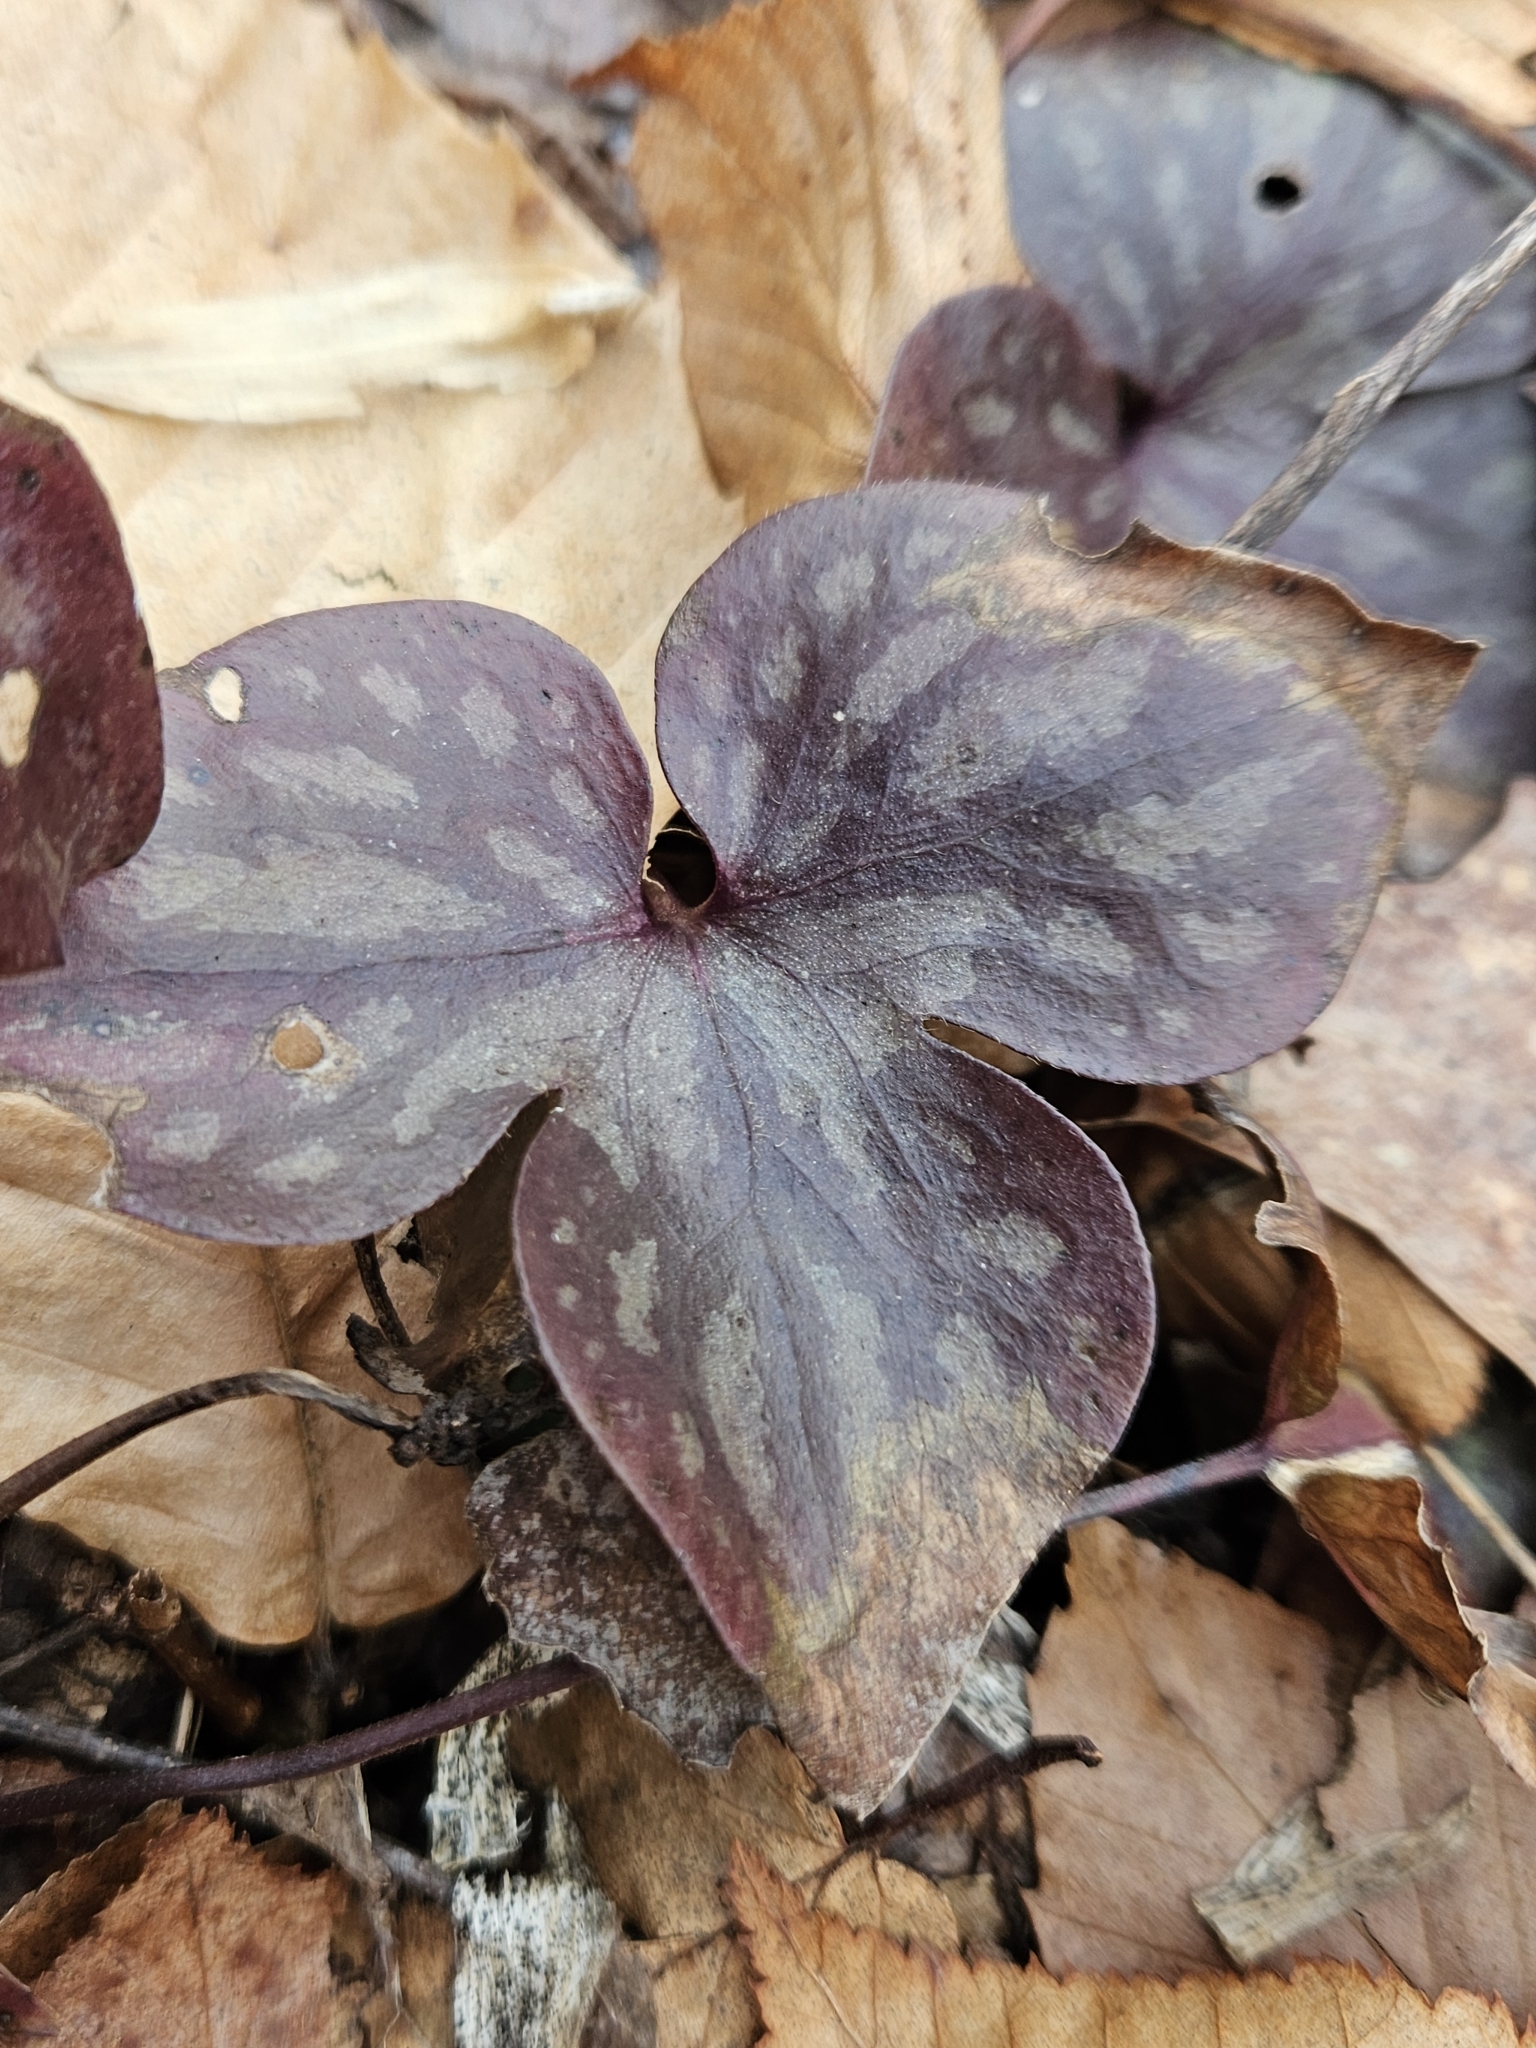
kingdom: Plantae
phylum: Tracheophyta
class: Magnoliopsida
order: Ranunculales
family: Ranunculaceae
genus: Hepatica
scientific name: Hepatica acutiloba
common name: Sharp-lobed hepatica
